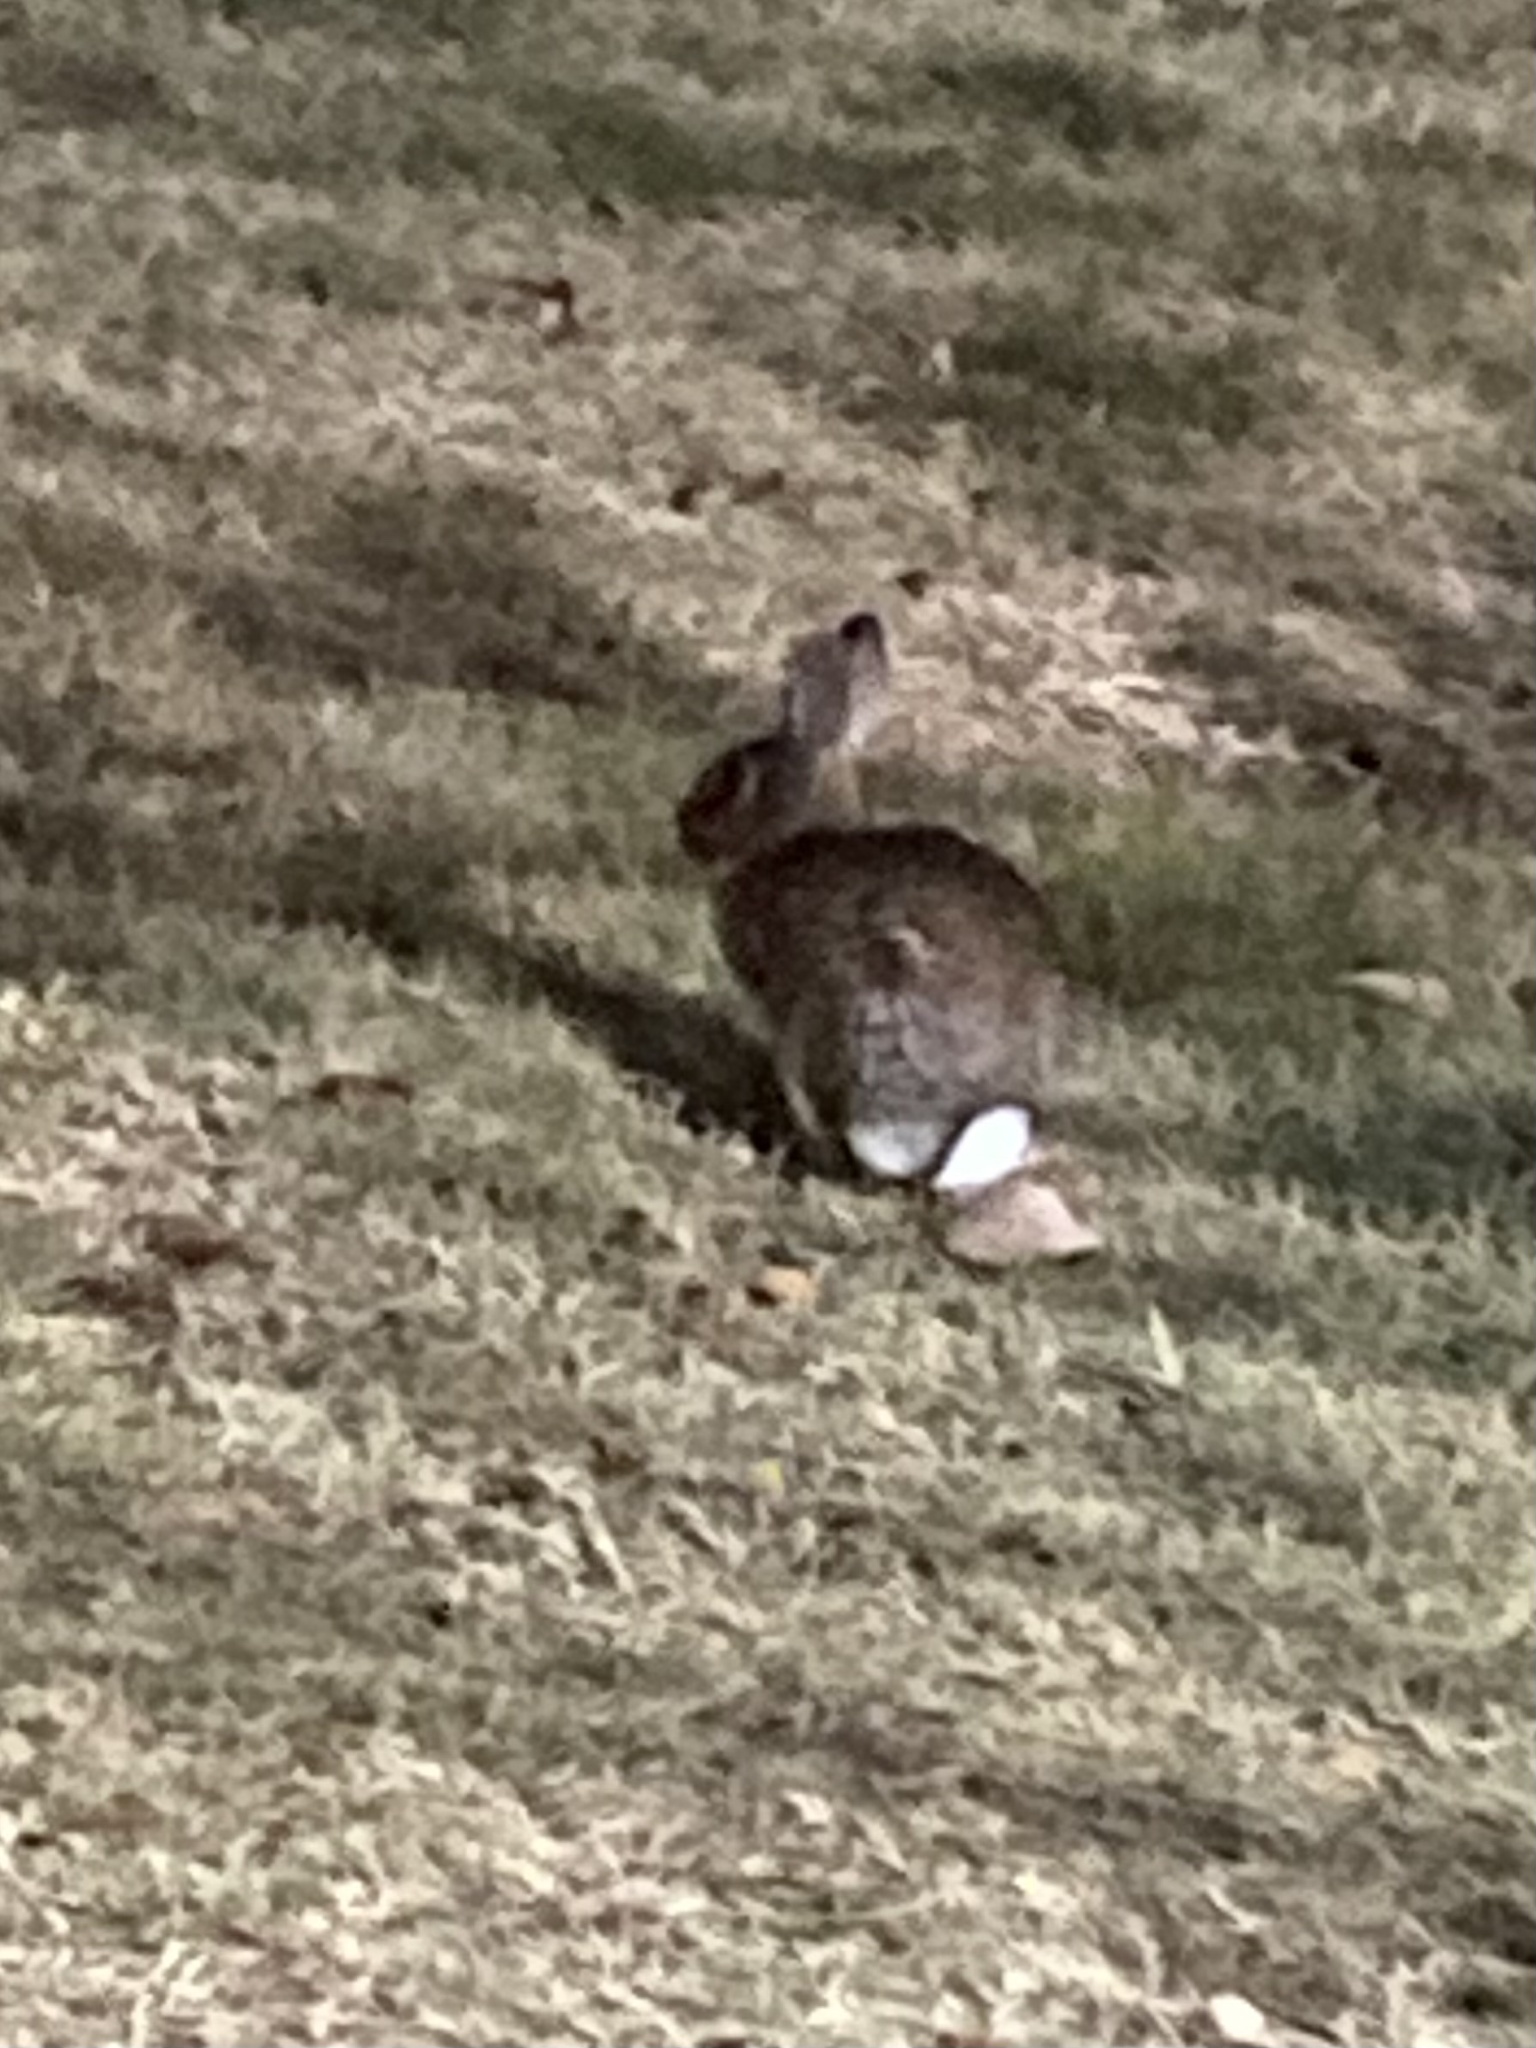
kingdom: Animalia
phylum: Chordata
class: Mammalia
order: Lagomorpha
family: Leporidae
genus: Sylvilagus
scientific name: Sylvilagus floridanus
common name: Eastern cottontail
